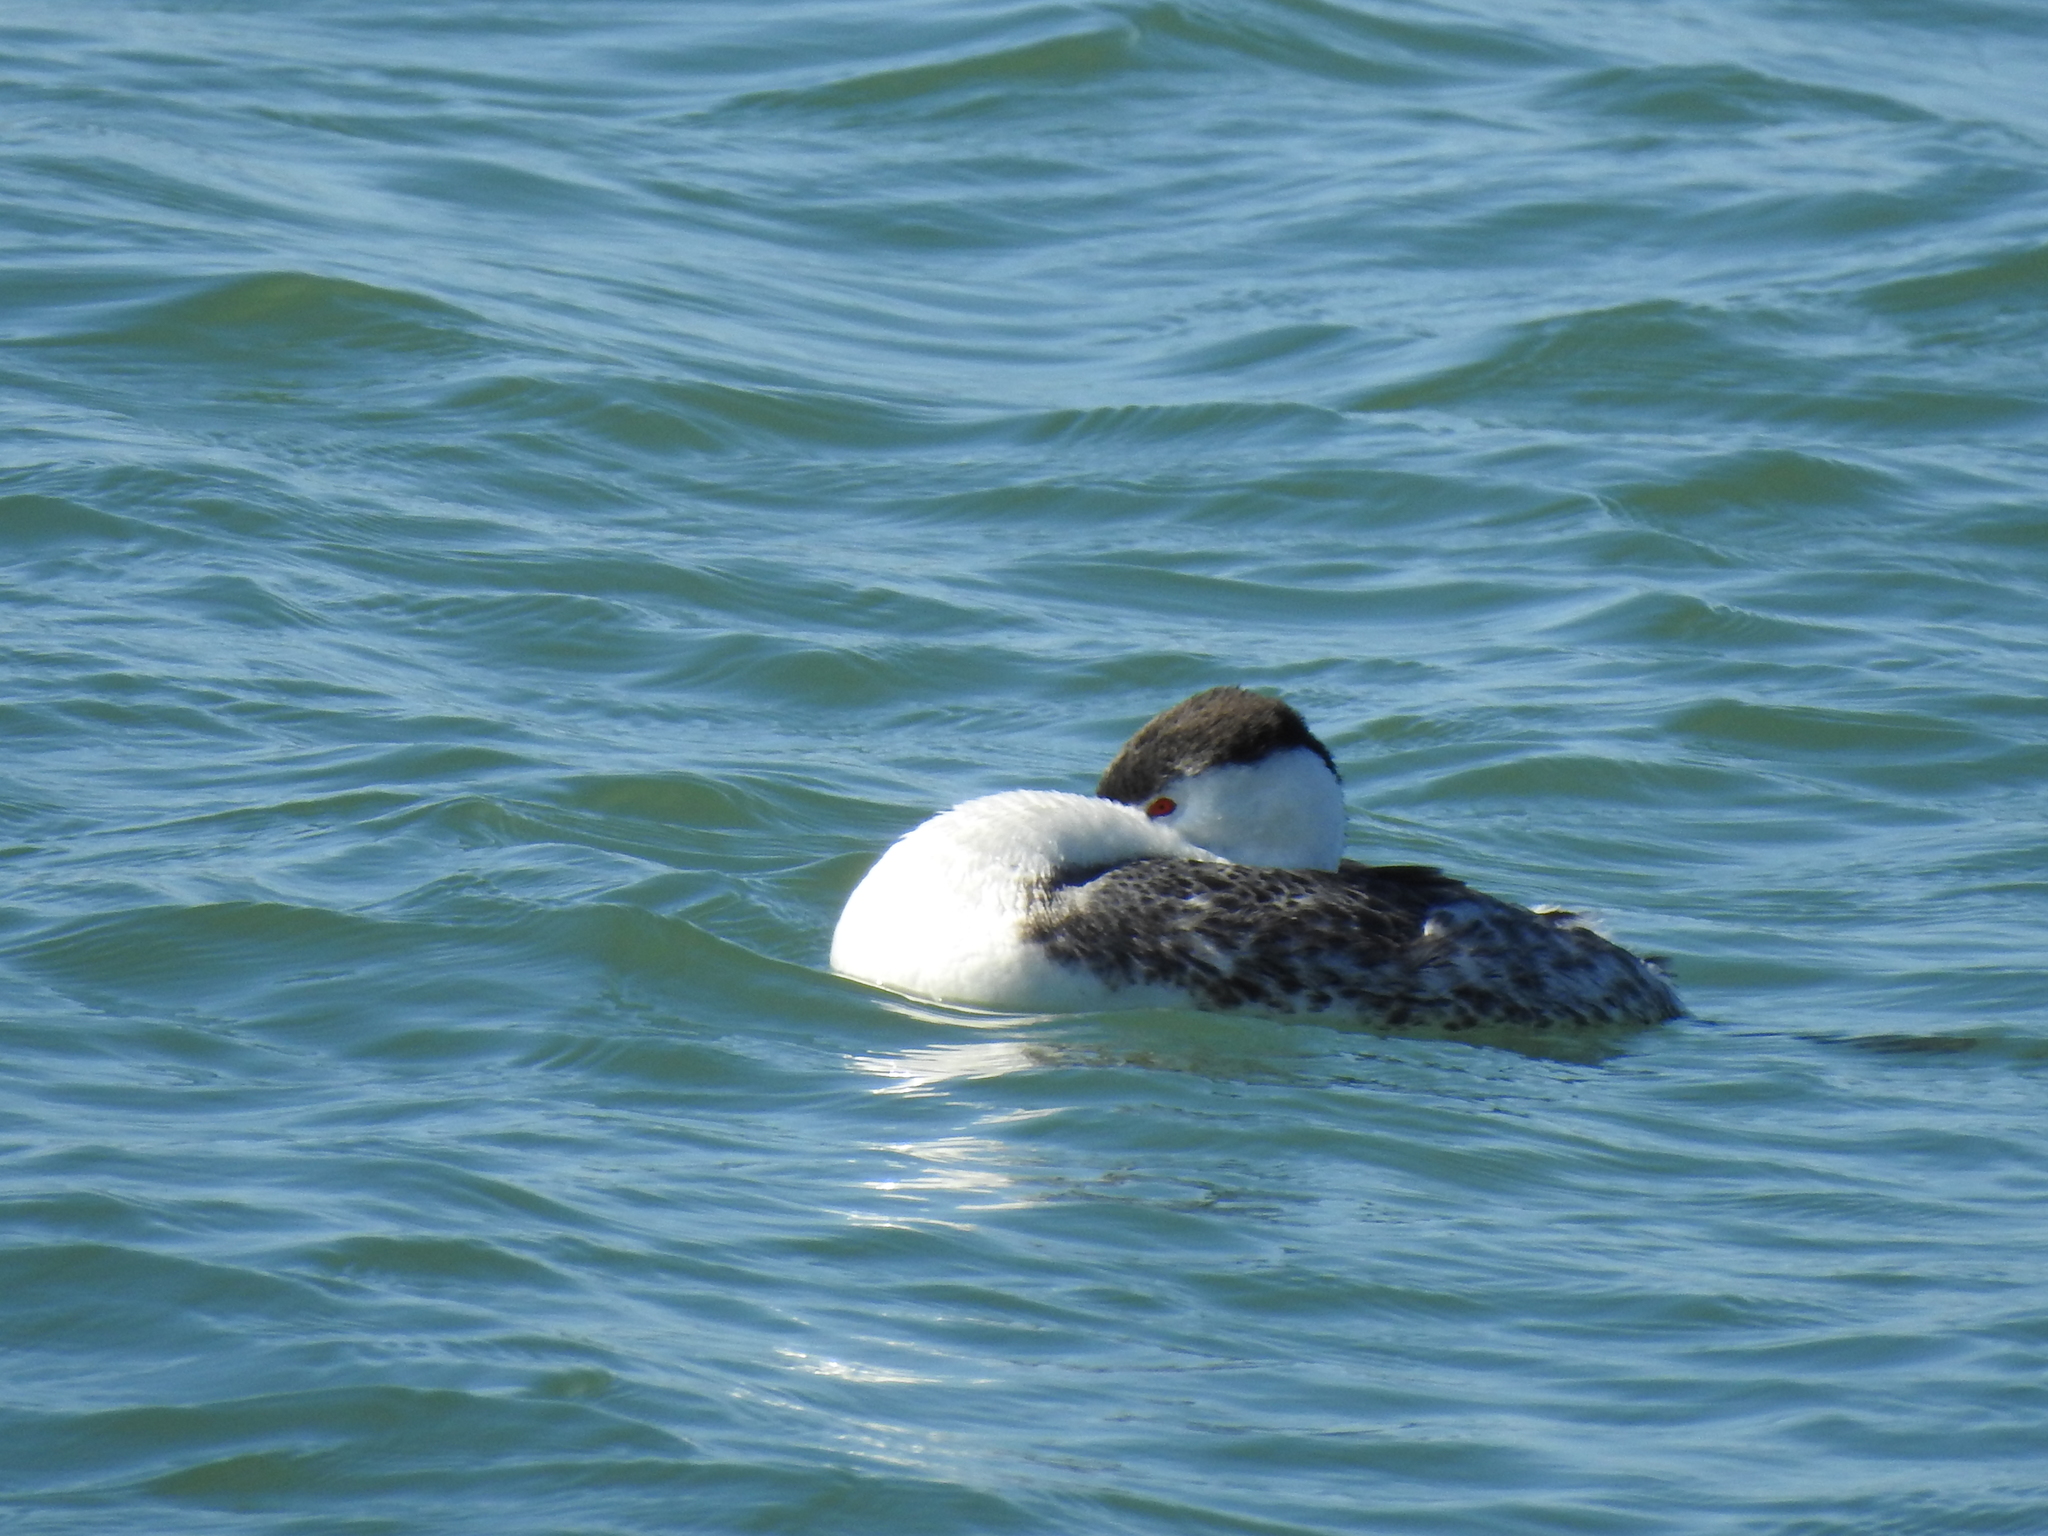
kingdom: Animalia
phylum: Chordata
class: Aves
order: Podicipediformes
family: Podicipedidae
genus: Aechmophorus
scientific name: Aechmophorus clarkii
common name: Clark's grebe
